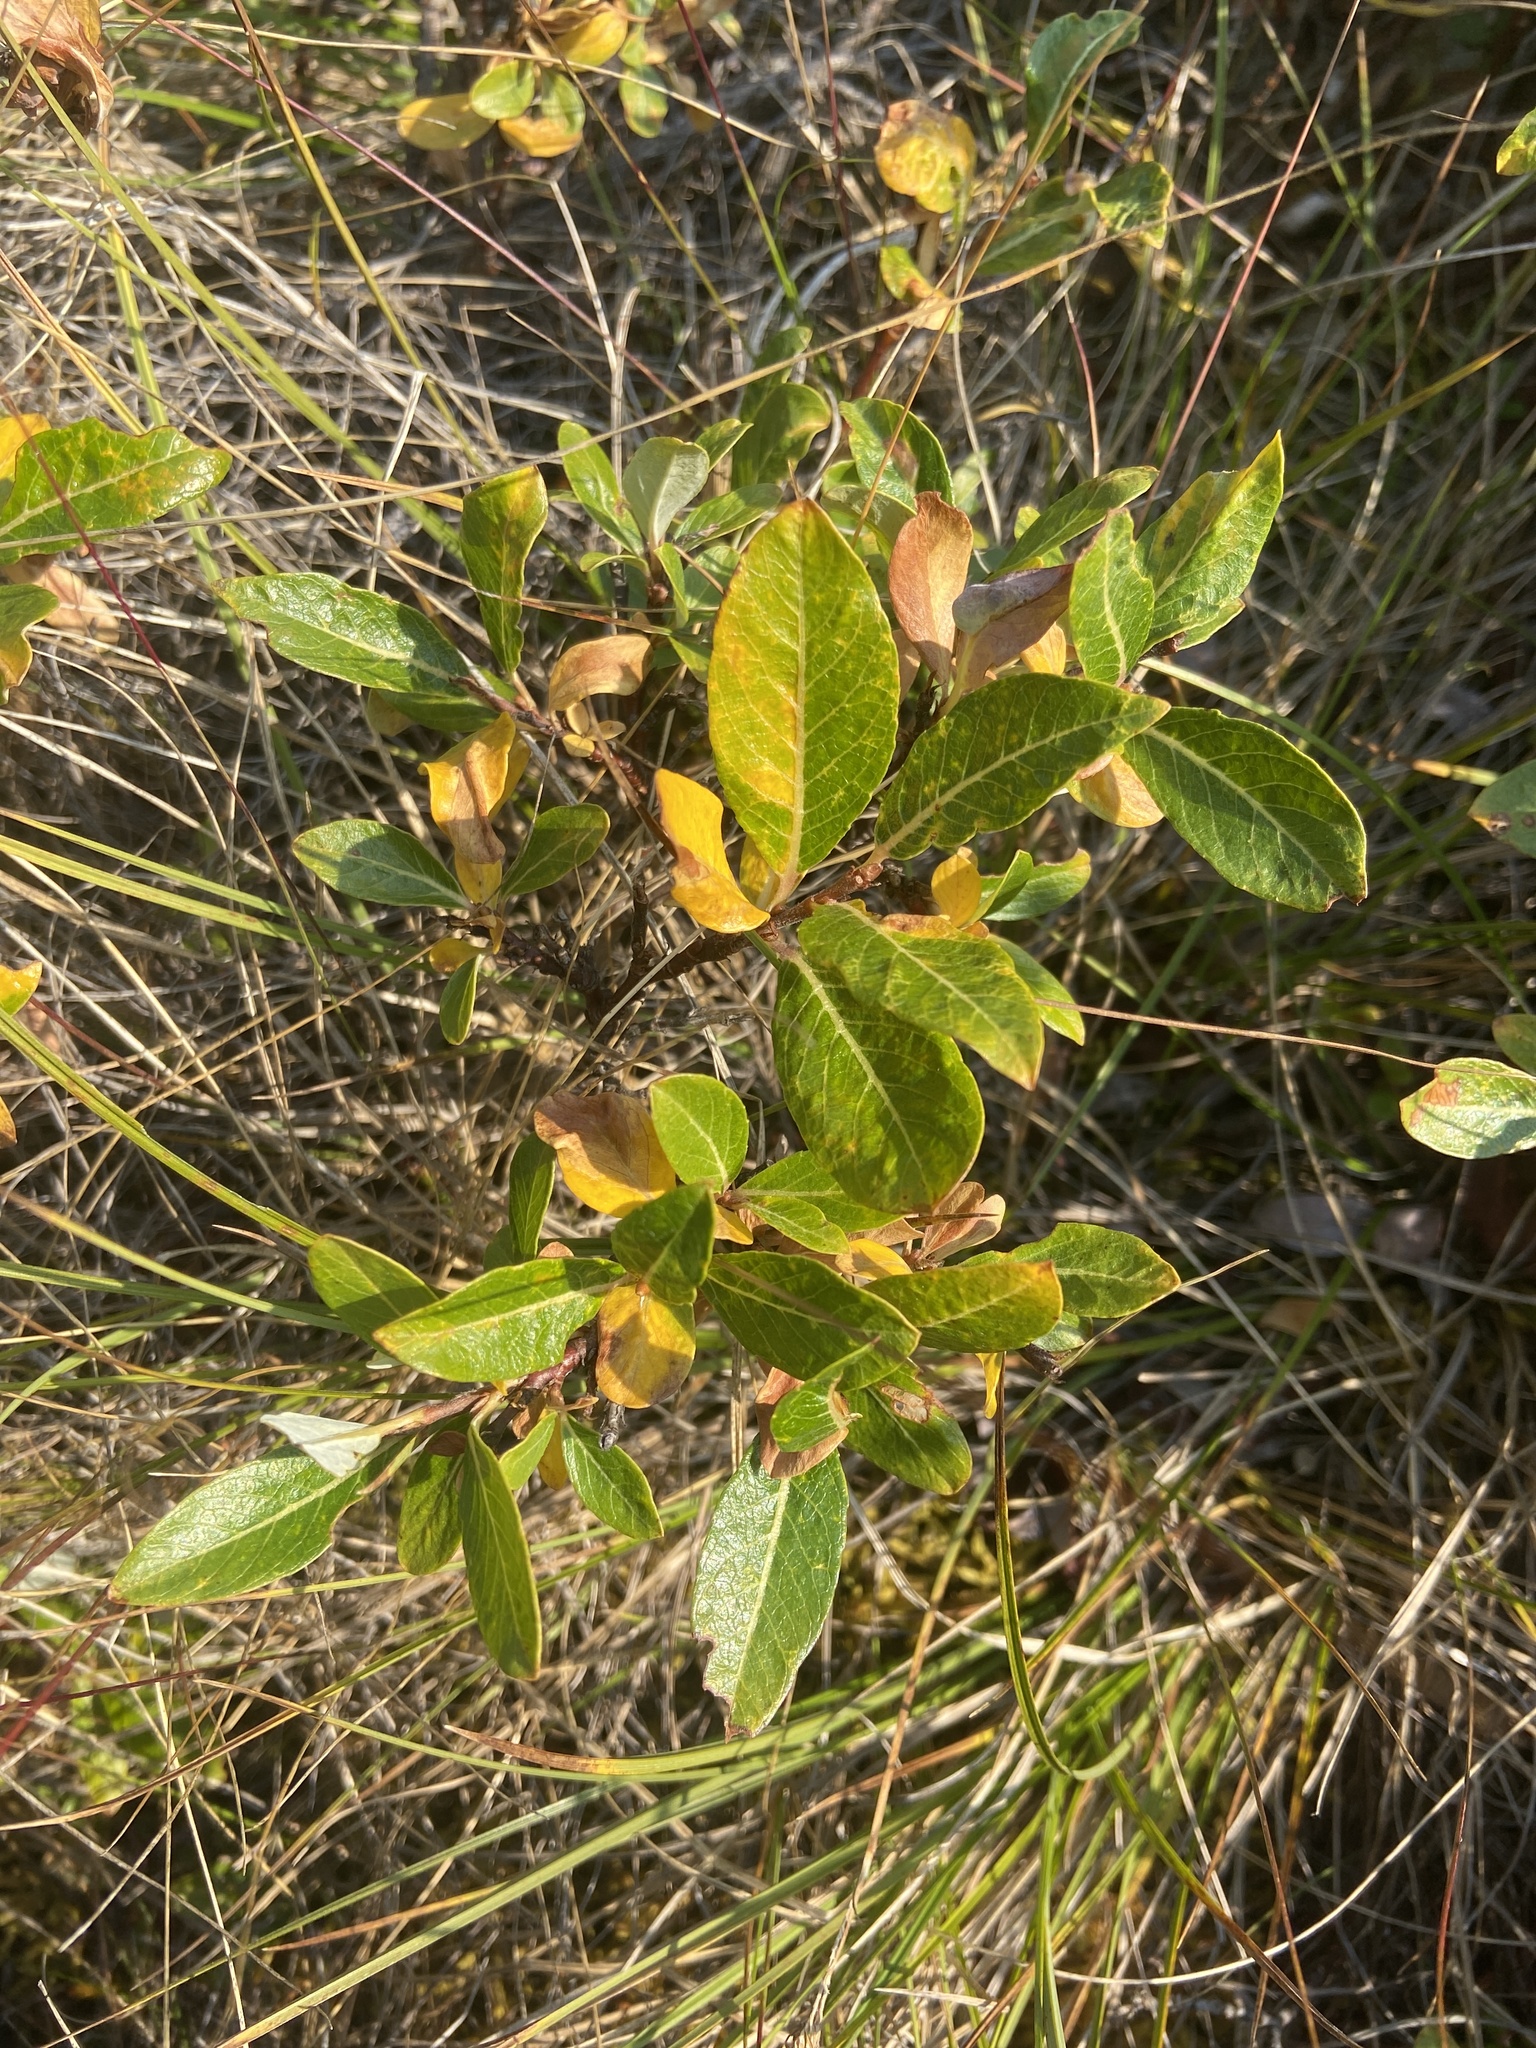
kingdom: Plantae
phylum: Tracheophyta
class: Magnoliopsida
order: Malpighiales
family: Salicaceae
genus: Salix
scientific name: Salix pulchra
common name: Diamond-leaved willow
